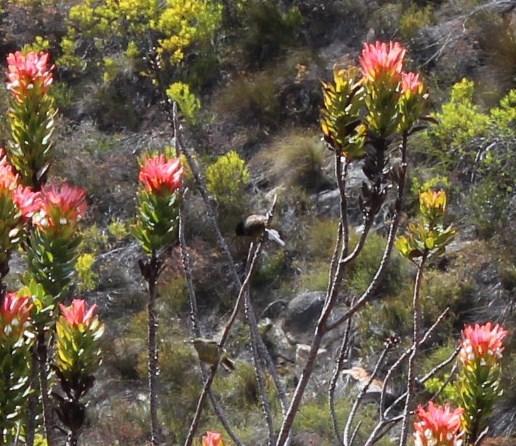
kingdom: Animalia
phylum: Chordata
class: Aves
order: Passeriformes
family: Nectariniidae
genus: Anthobaphes
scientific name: Anthobaphes violacea
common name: Orange-breasted sunbird
